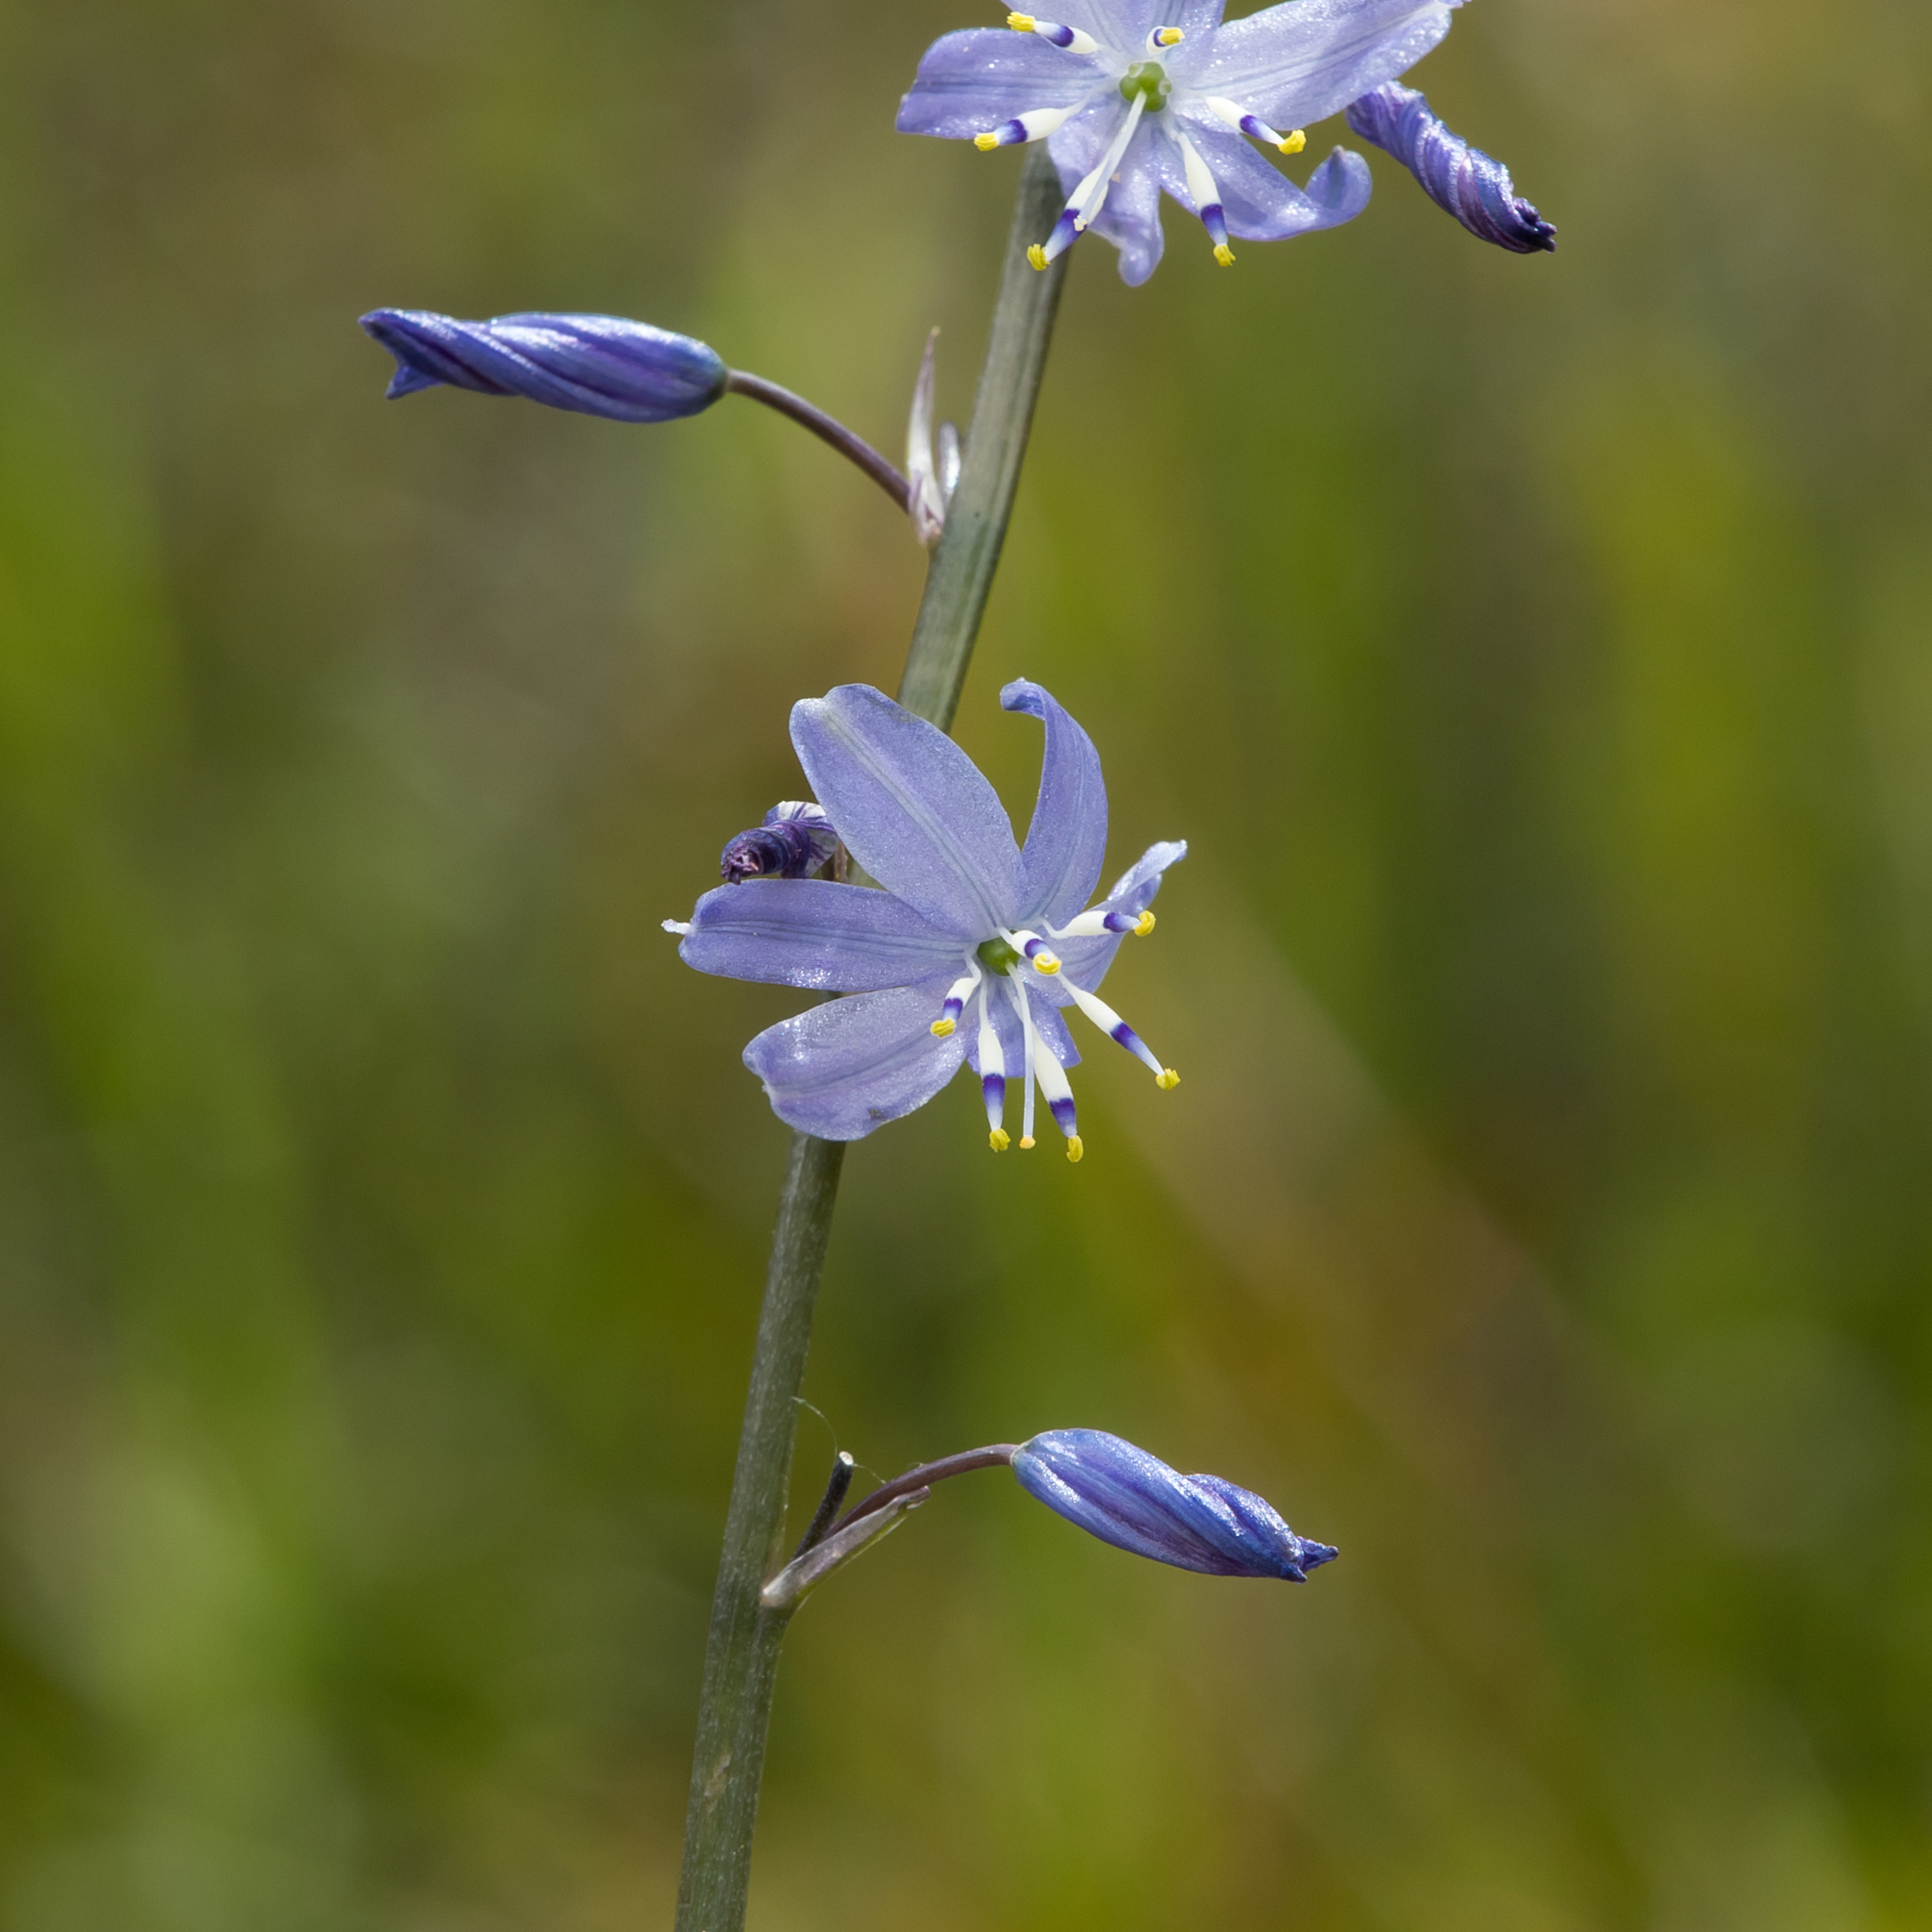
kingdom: Plantae
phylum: Tracheophyta
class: Liliopsida
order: Asparagales
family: Asphodelaceae
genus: Caesia
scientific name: Caesia calliantha
